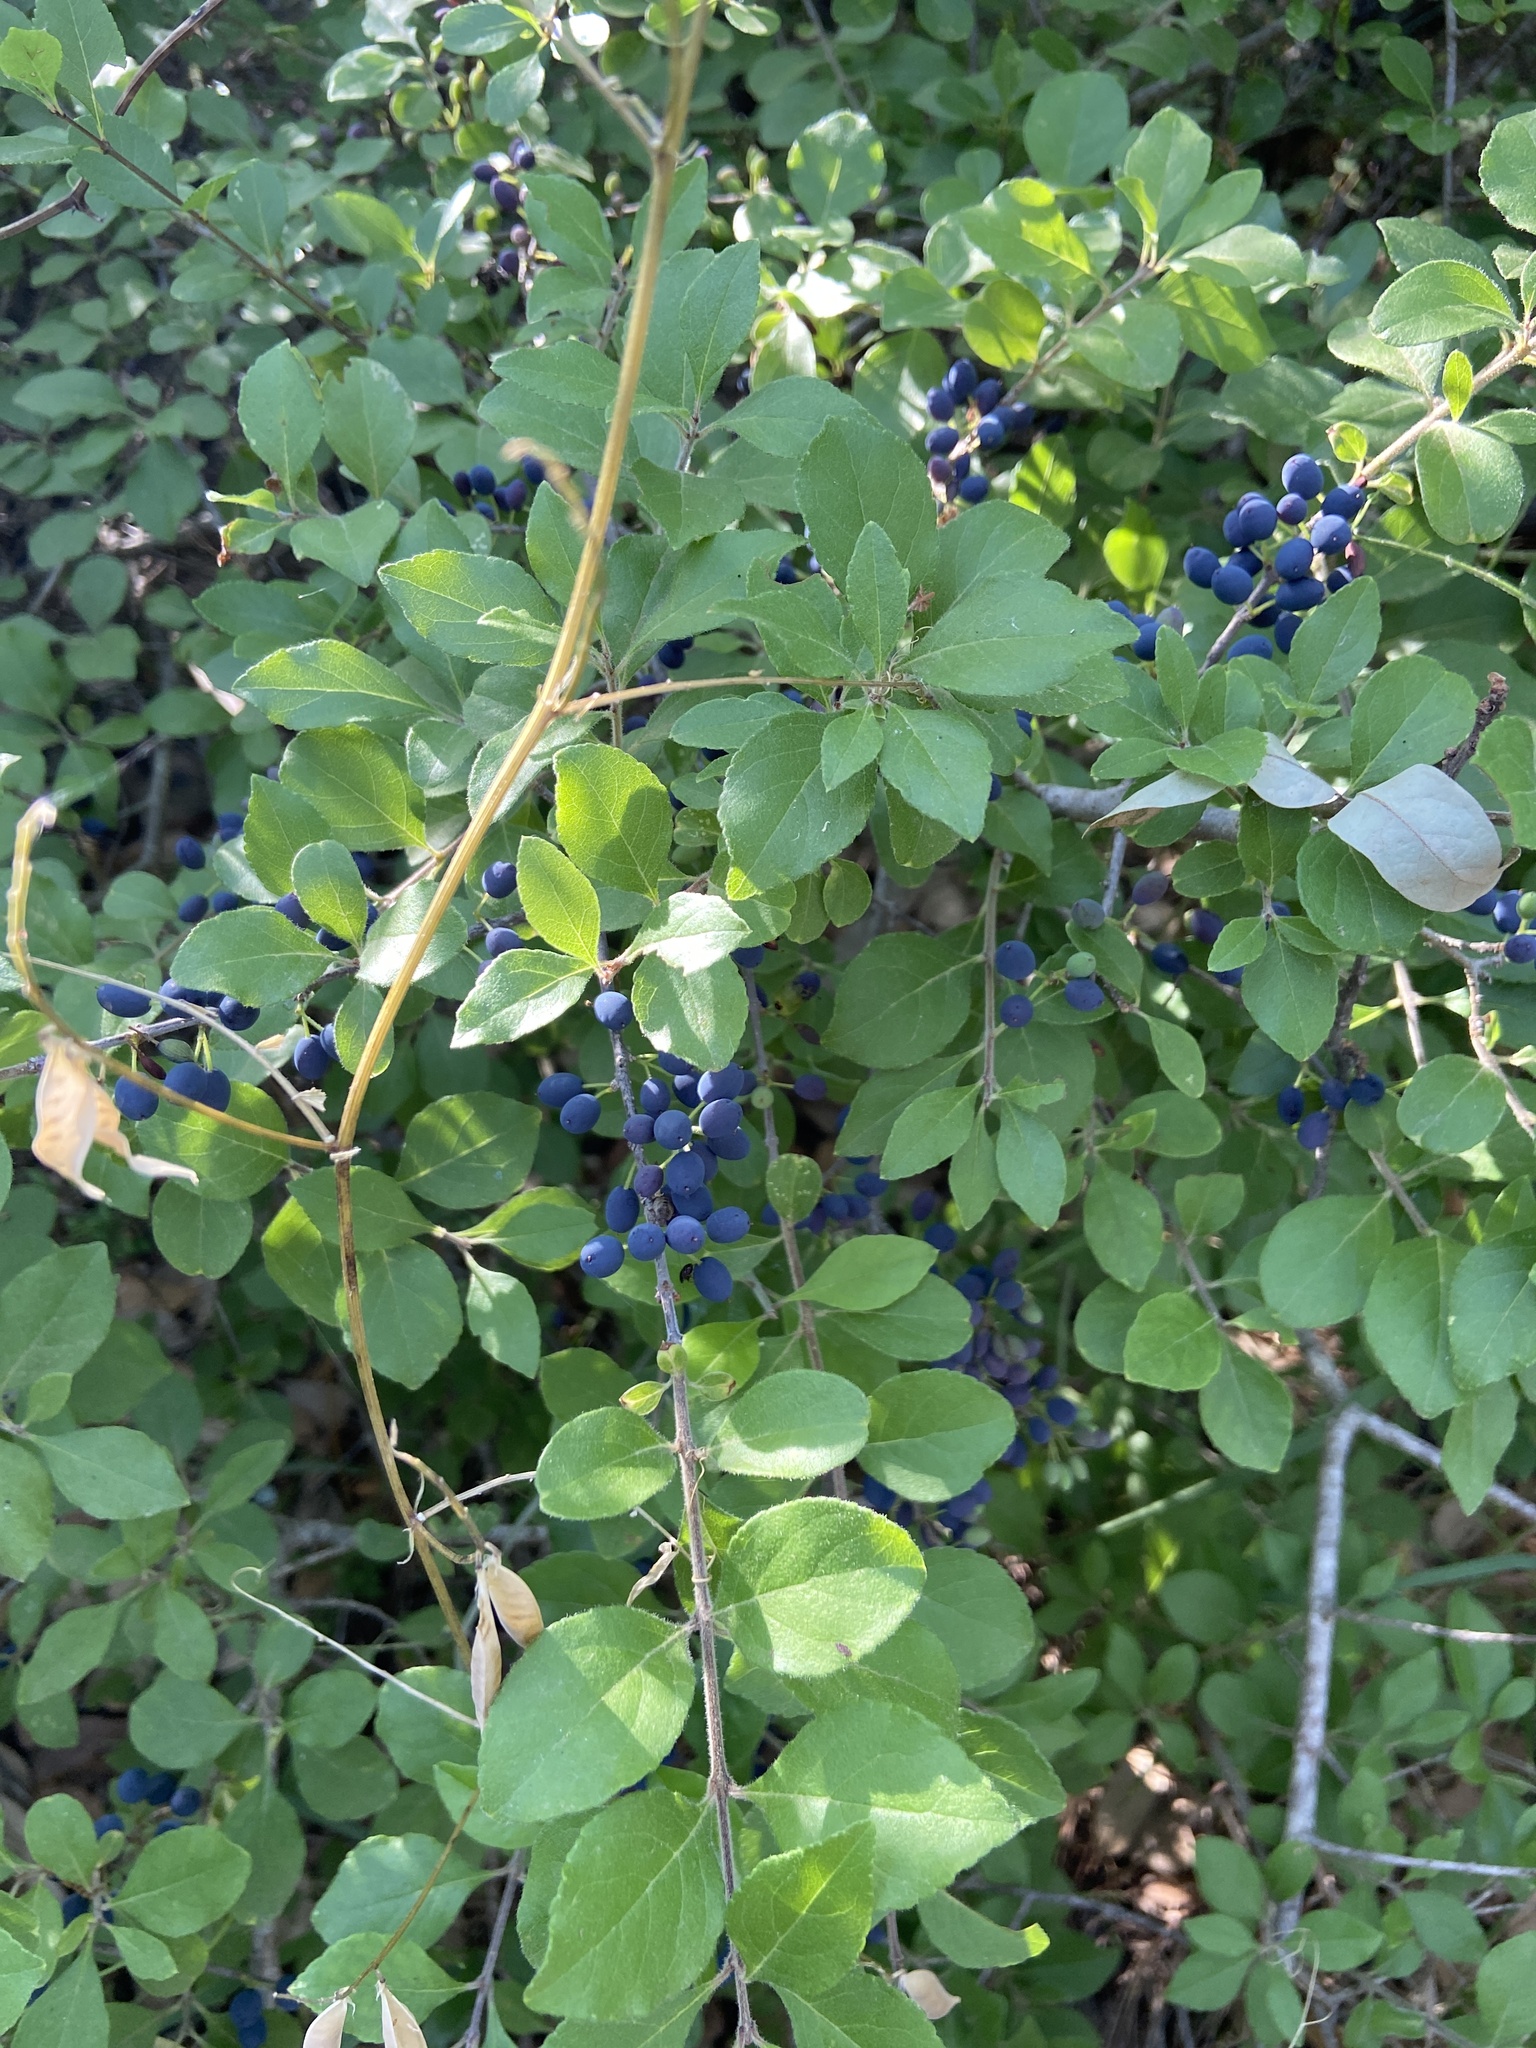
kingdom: Plantae
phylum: Tracheophyta
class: Magnoliopsida
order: Lamiales
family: Oleaceae
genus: Forestiera
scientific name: Forestiera pubescens
